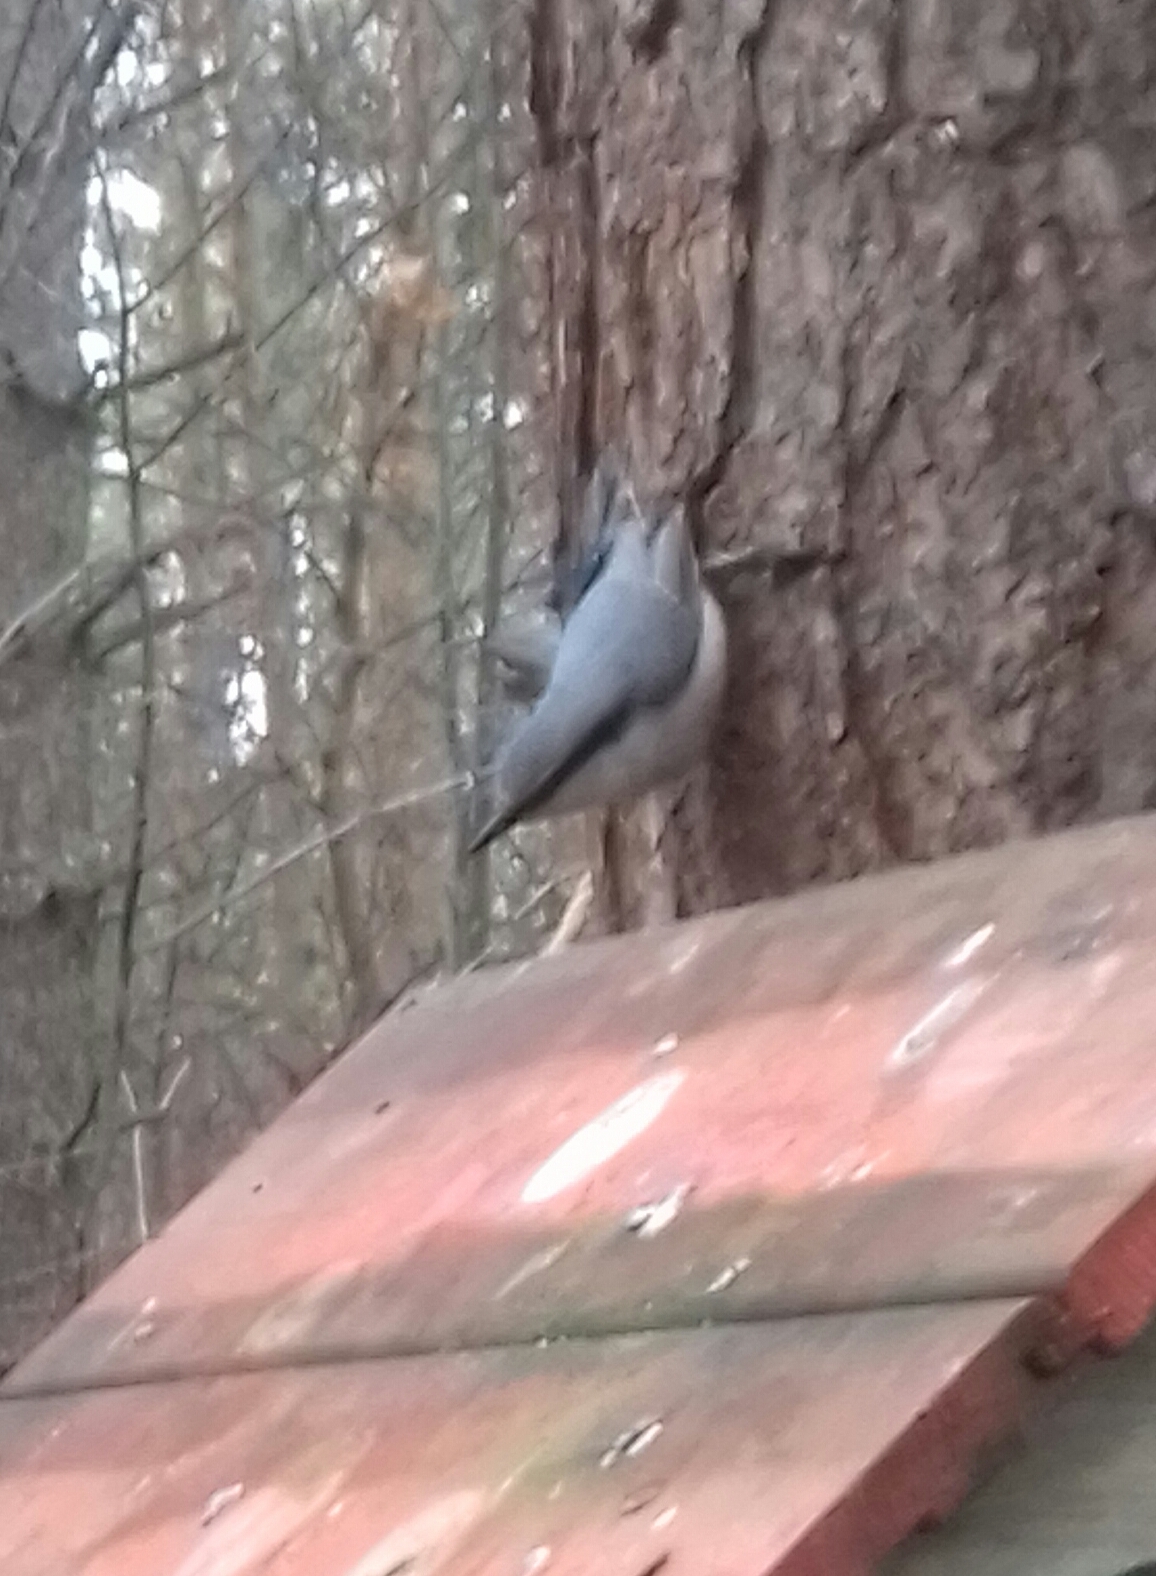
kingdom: Animalia
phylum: Chordata
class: Aves
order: Passeriformes
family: Sittidae
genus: Sitta
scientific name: Sitta europaea
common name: Eurasian nuthatch
